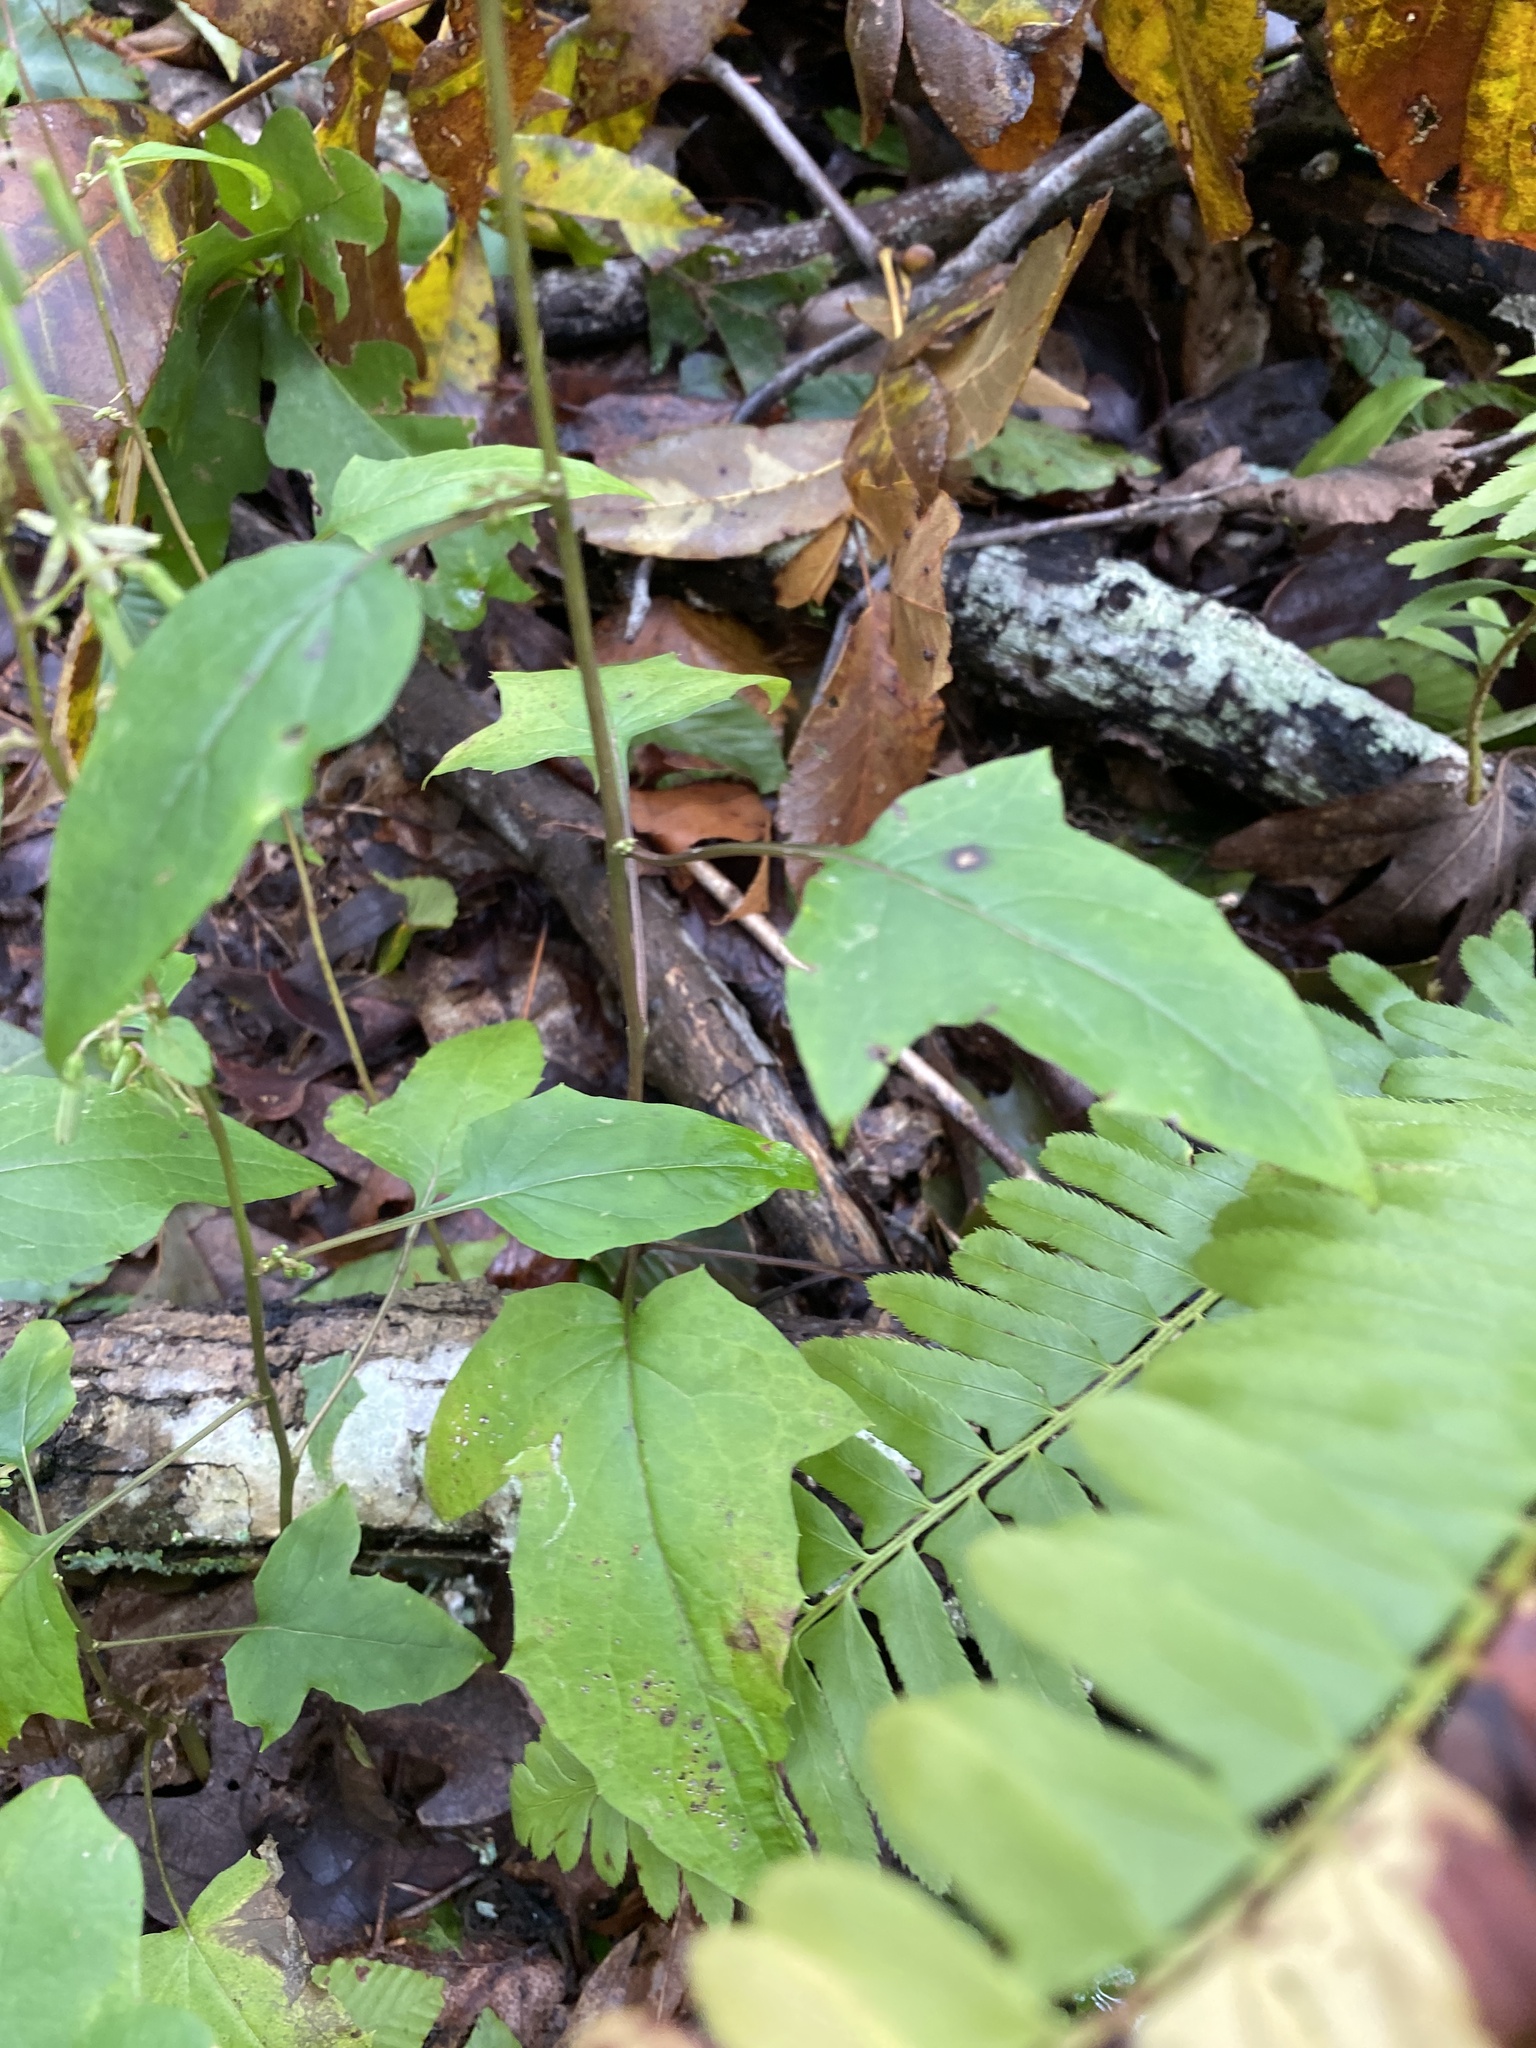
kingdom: Plantae
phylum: Tracheophyta
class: Magnoliopsida
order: Asterales
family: Asteraceae
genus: Nabalus
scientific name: Nabalus altissima
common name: Tall rattlesnakeroot
